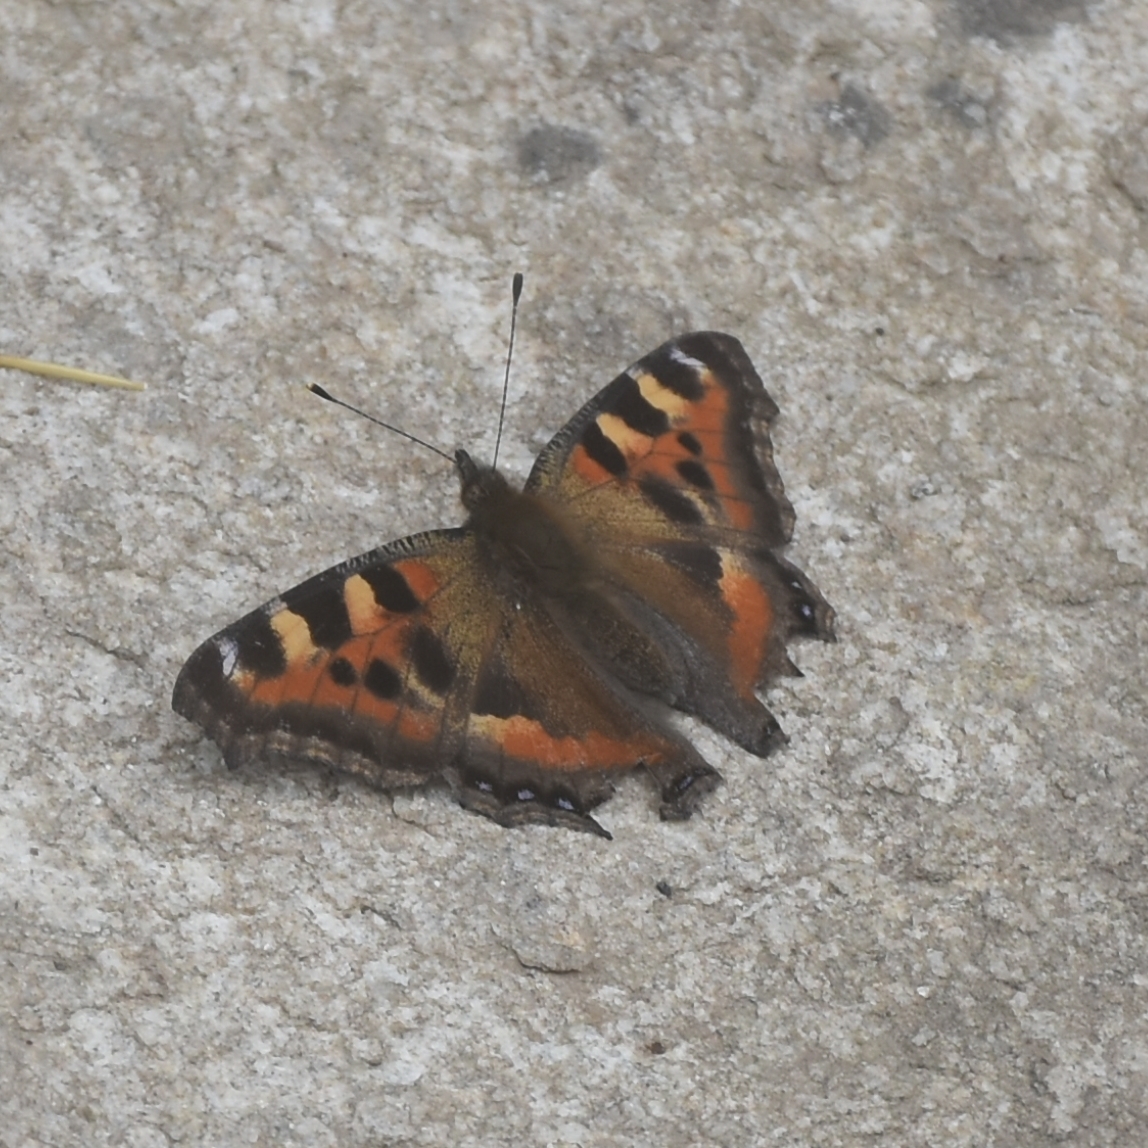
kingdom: Animalia
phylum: Arthropoda
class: Insecta
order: Lepidoptera
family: Nymphalidae
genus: Aglais
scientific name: Aglais caschmirensis
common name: Indian tortoiseshell
